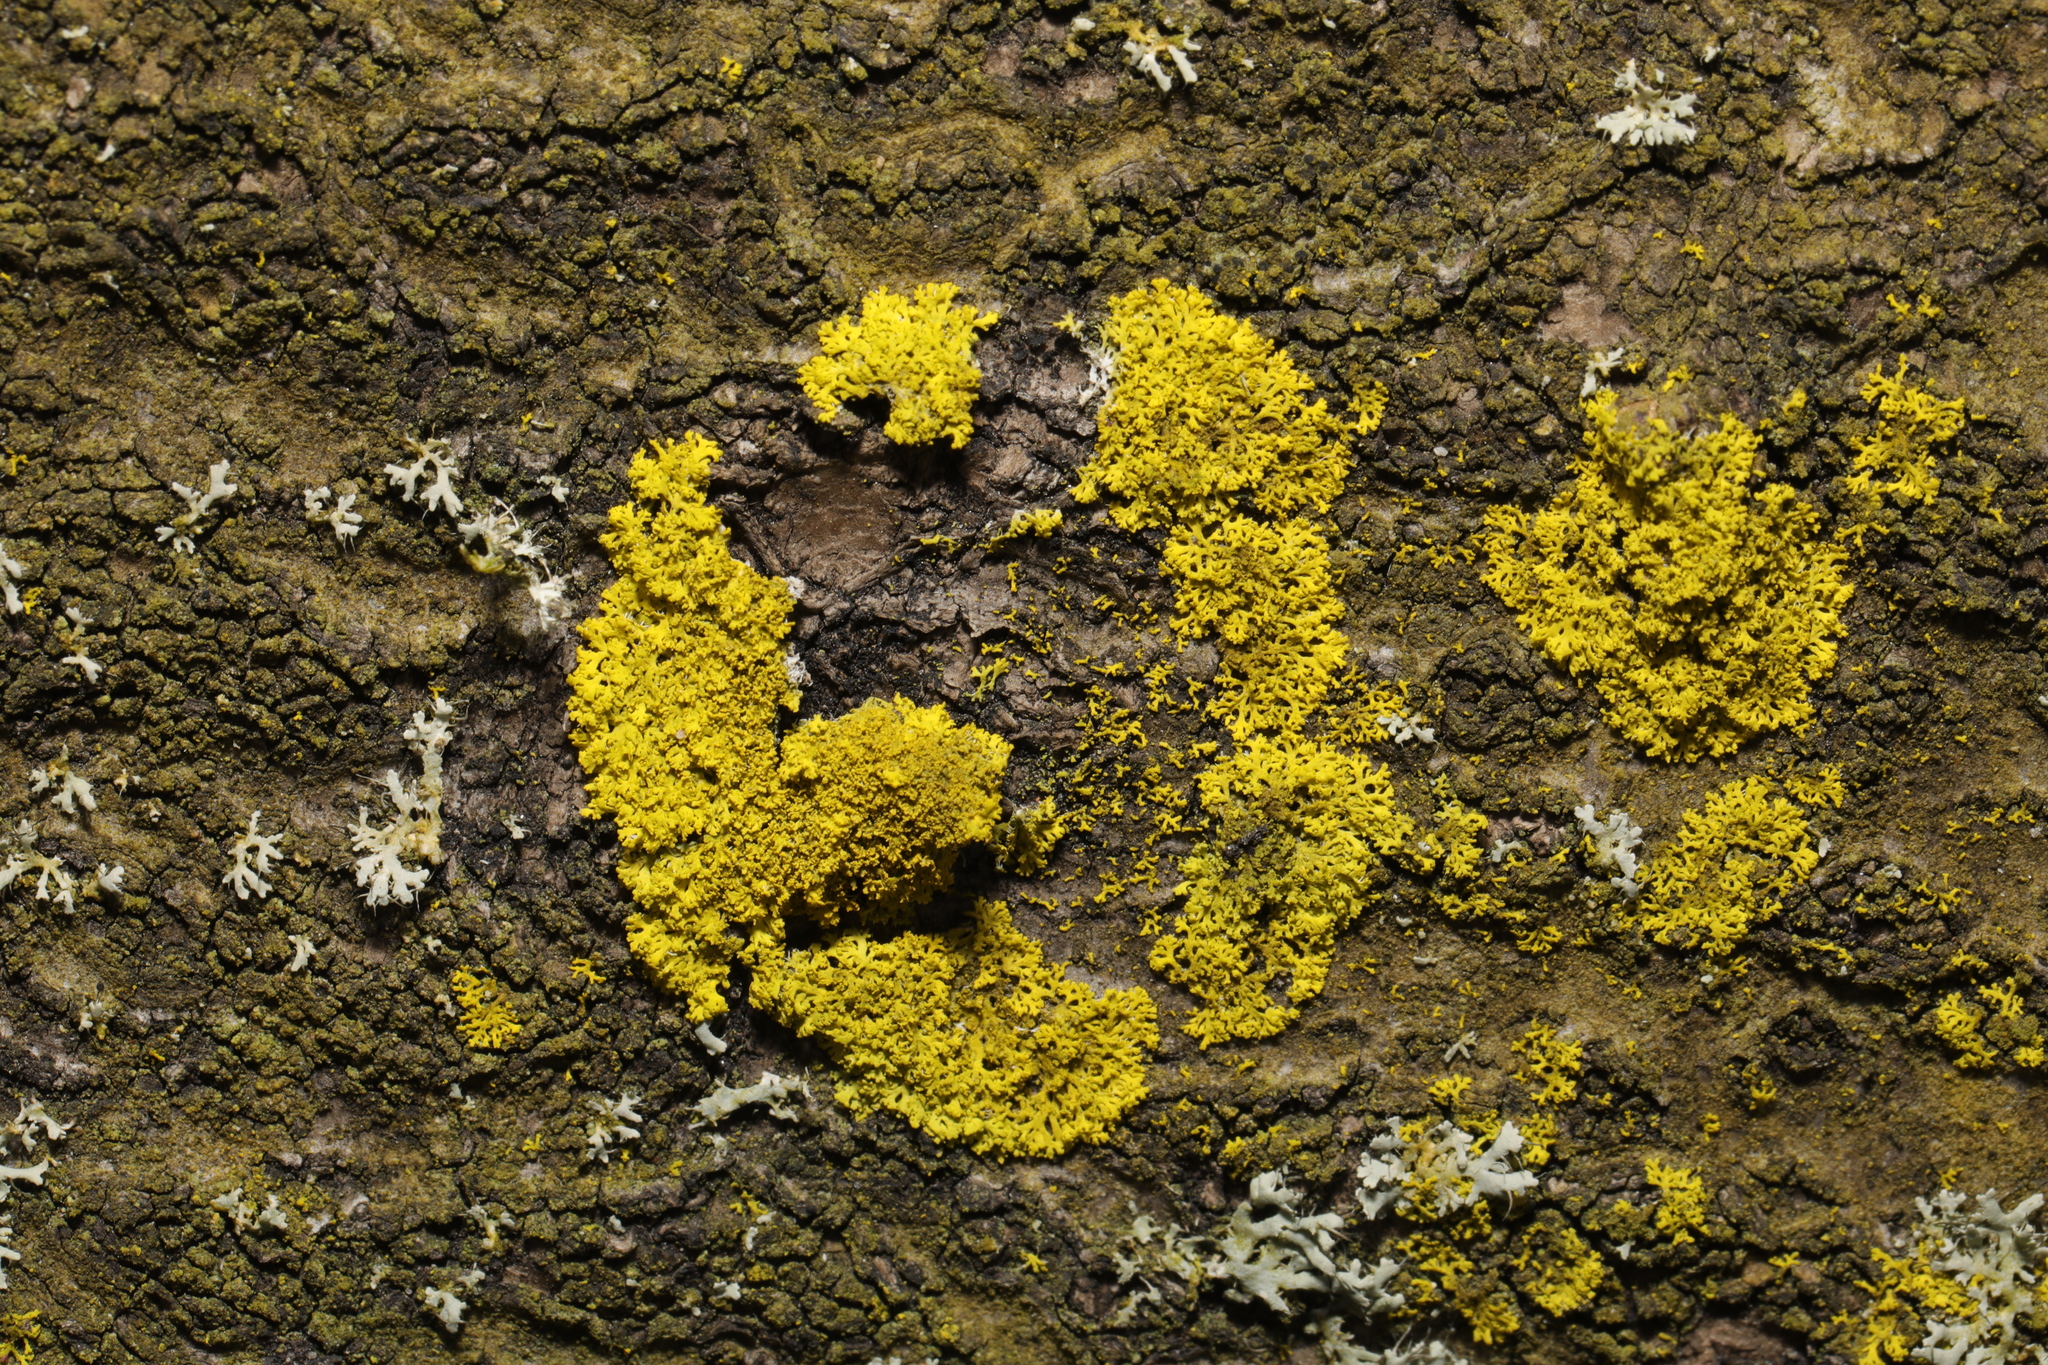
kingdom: Fungi
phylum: Ascomycota
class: Candelariomycetes
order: Candelariales
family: Candelariaceae
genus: Candelaria
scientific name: Candelaria concolor
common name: Candleflame lichen
